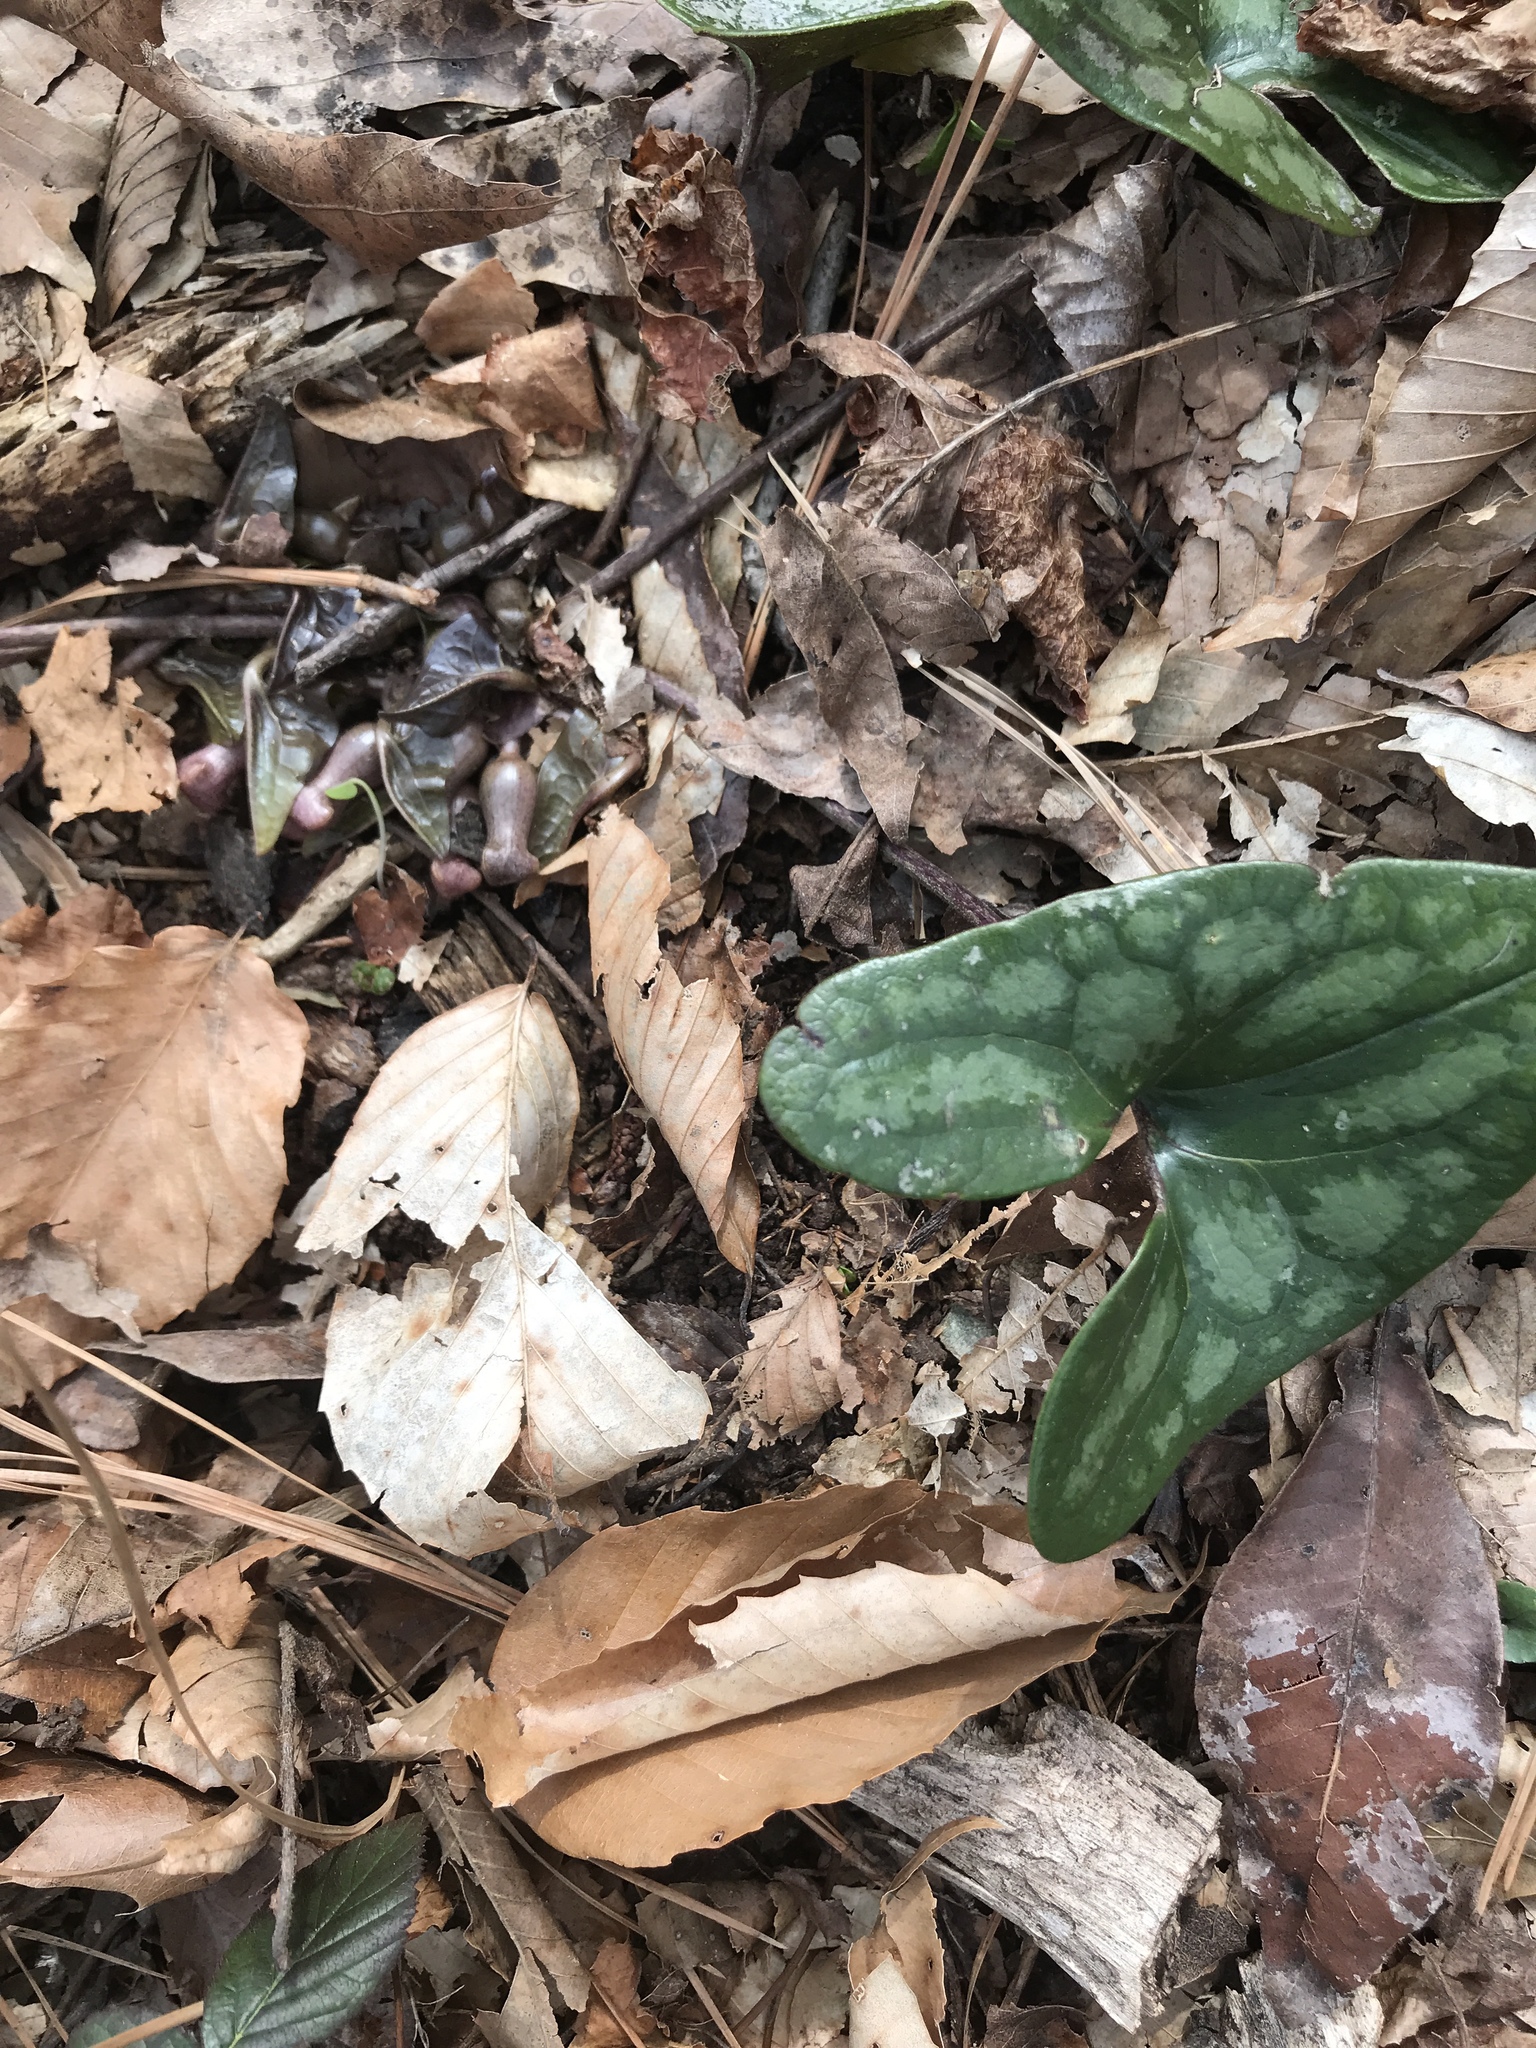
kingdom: Plantae
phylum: Tracheophyta
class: Magnoliopsida
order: Piperales
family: Aristolochiaceae
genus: Hexastylis
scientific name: Hexastylis arifolia
